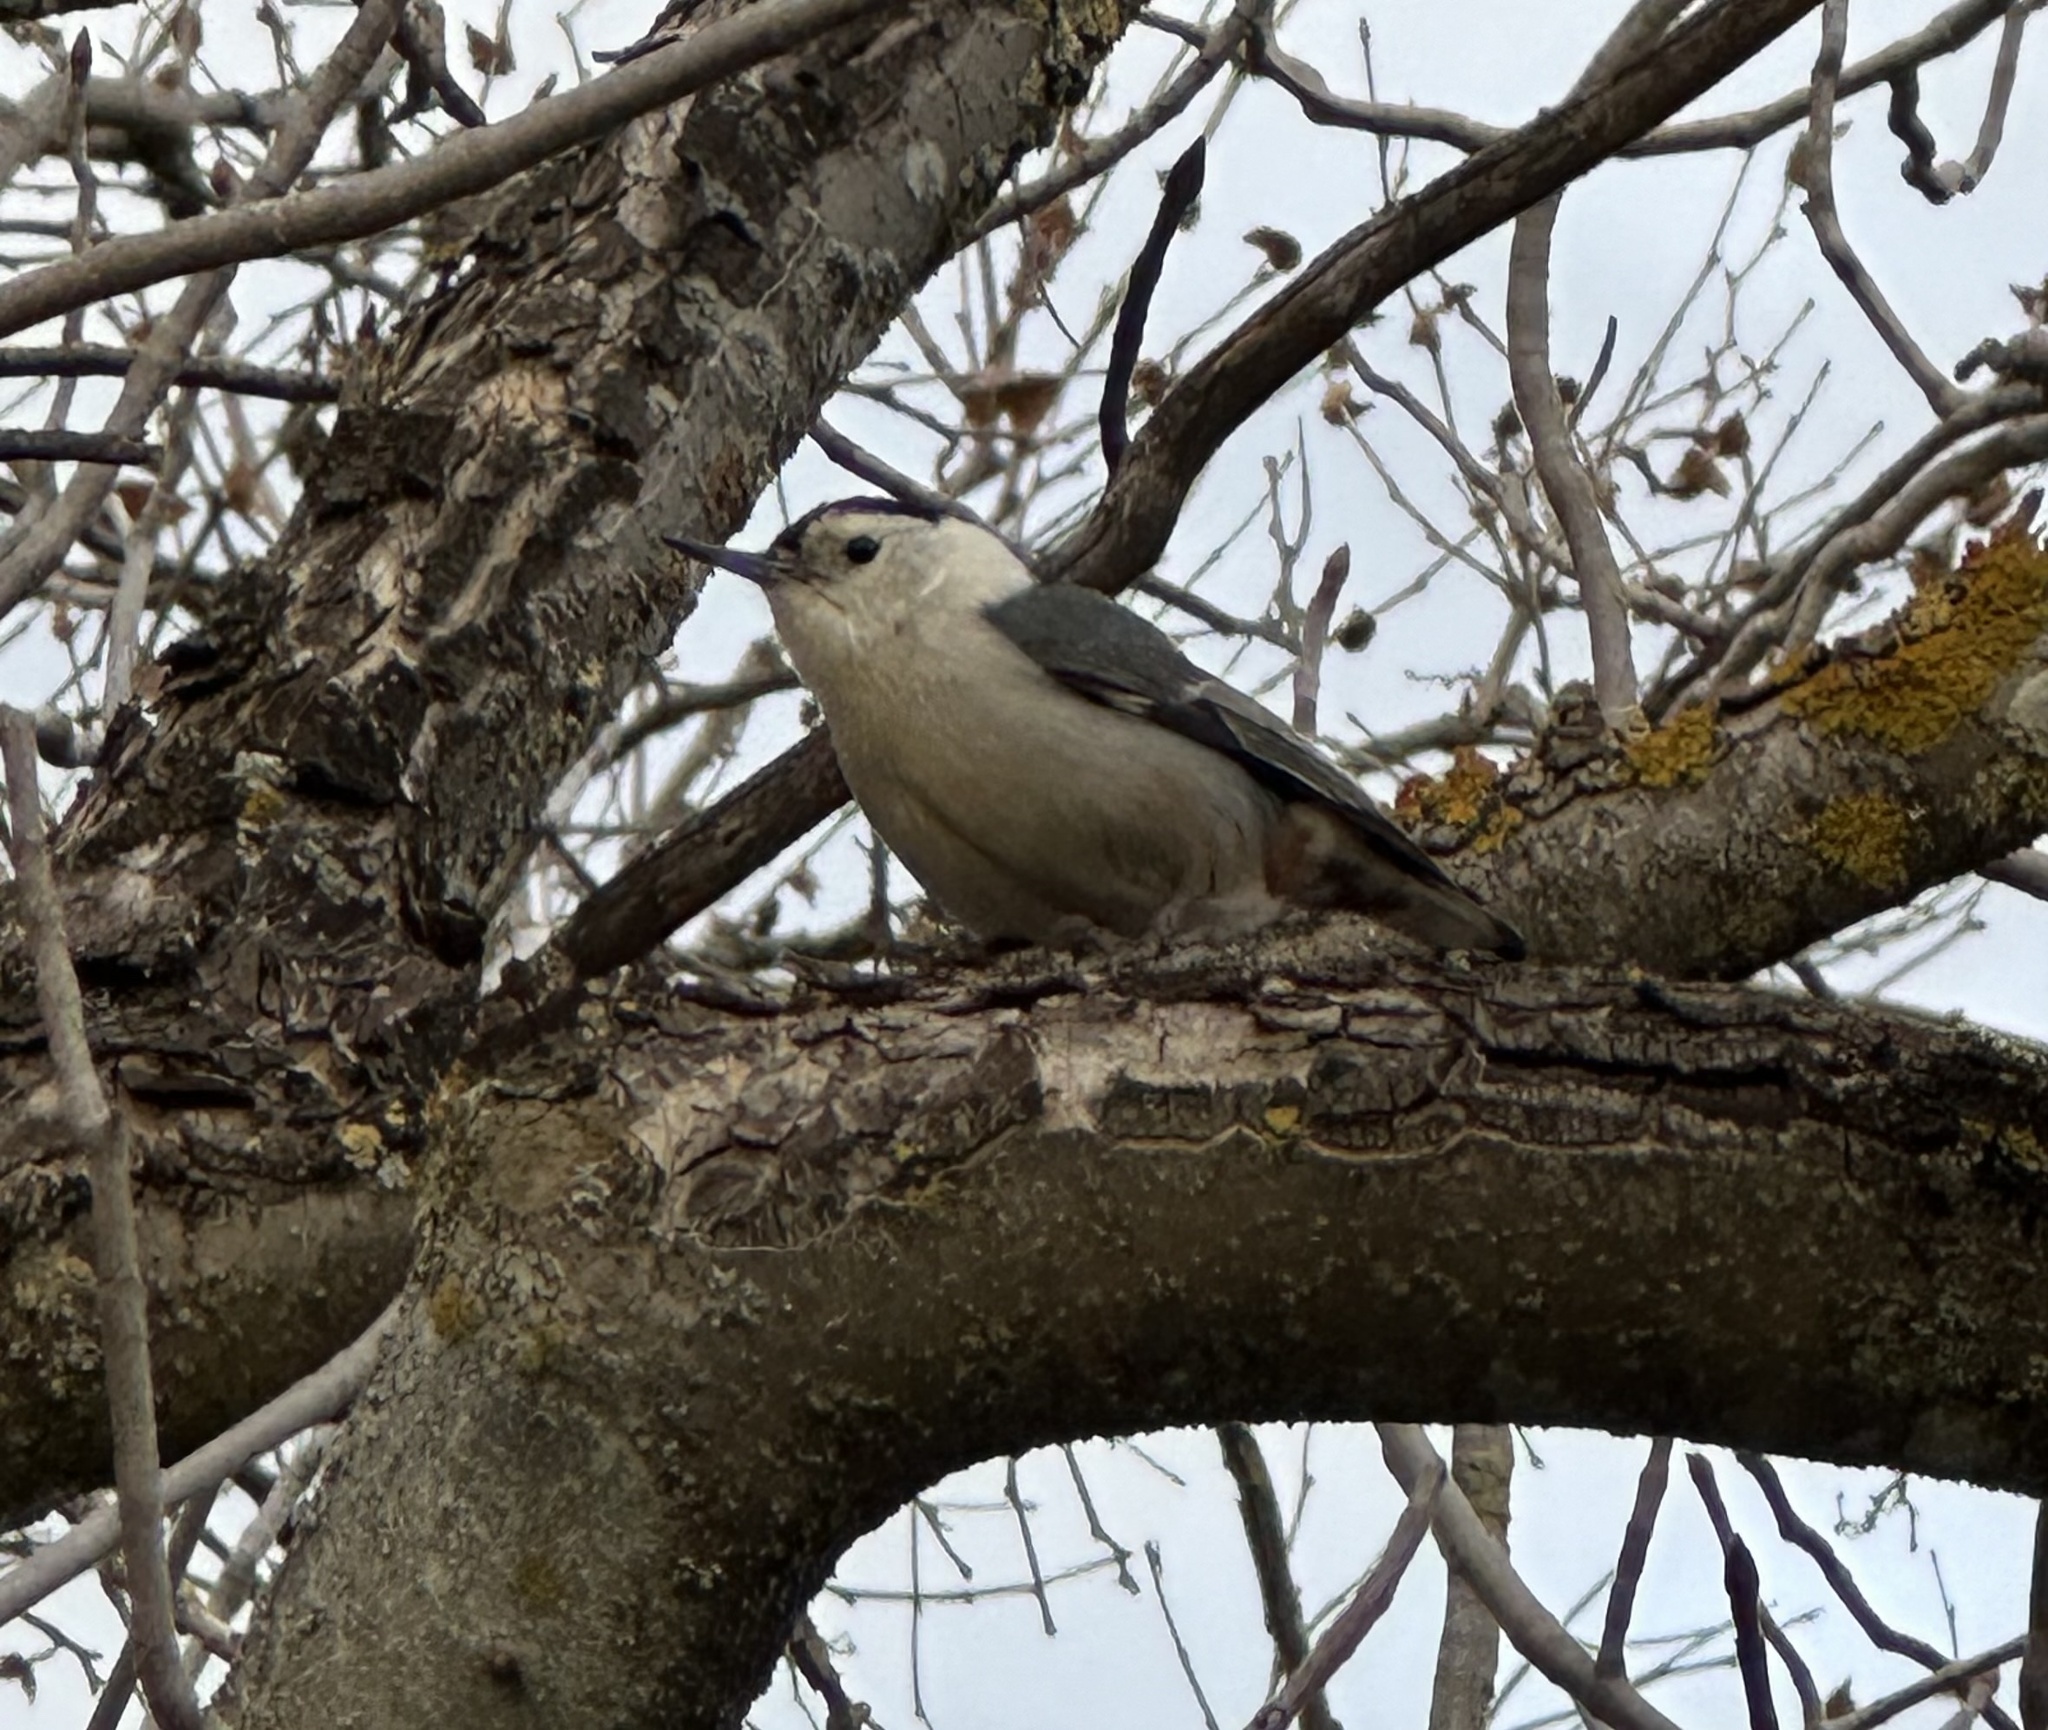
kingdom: Animalia
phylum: Chordata
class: Aves
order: Passeriformes
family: Sittidae
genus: Sitta
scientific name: Sitta carolinensis
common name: White-breasted nuthatch
